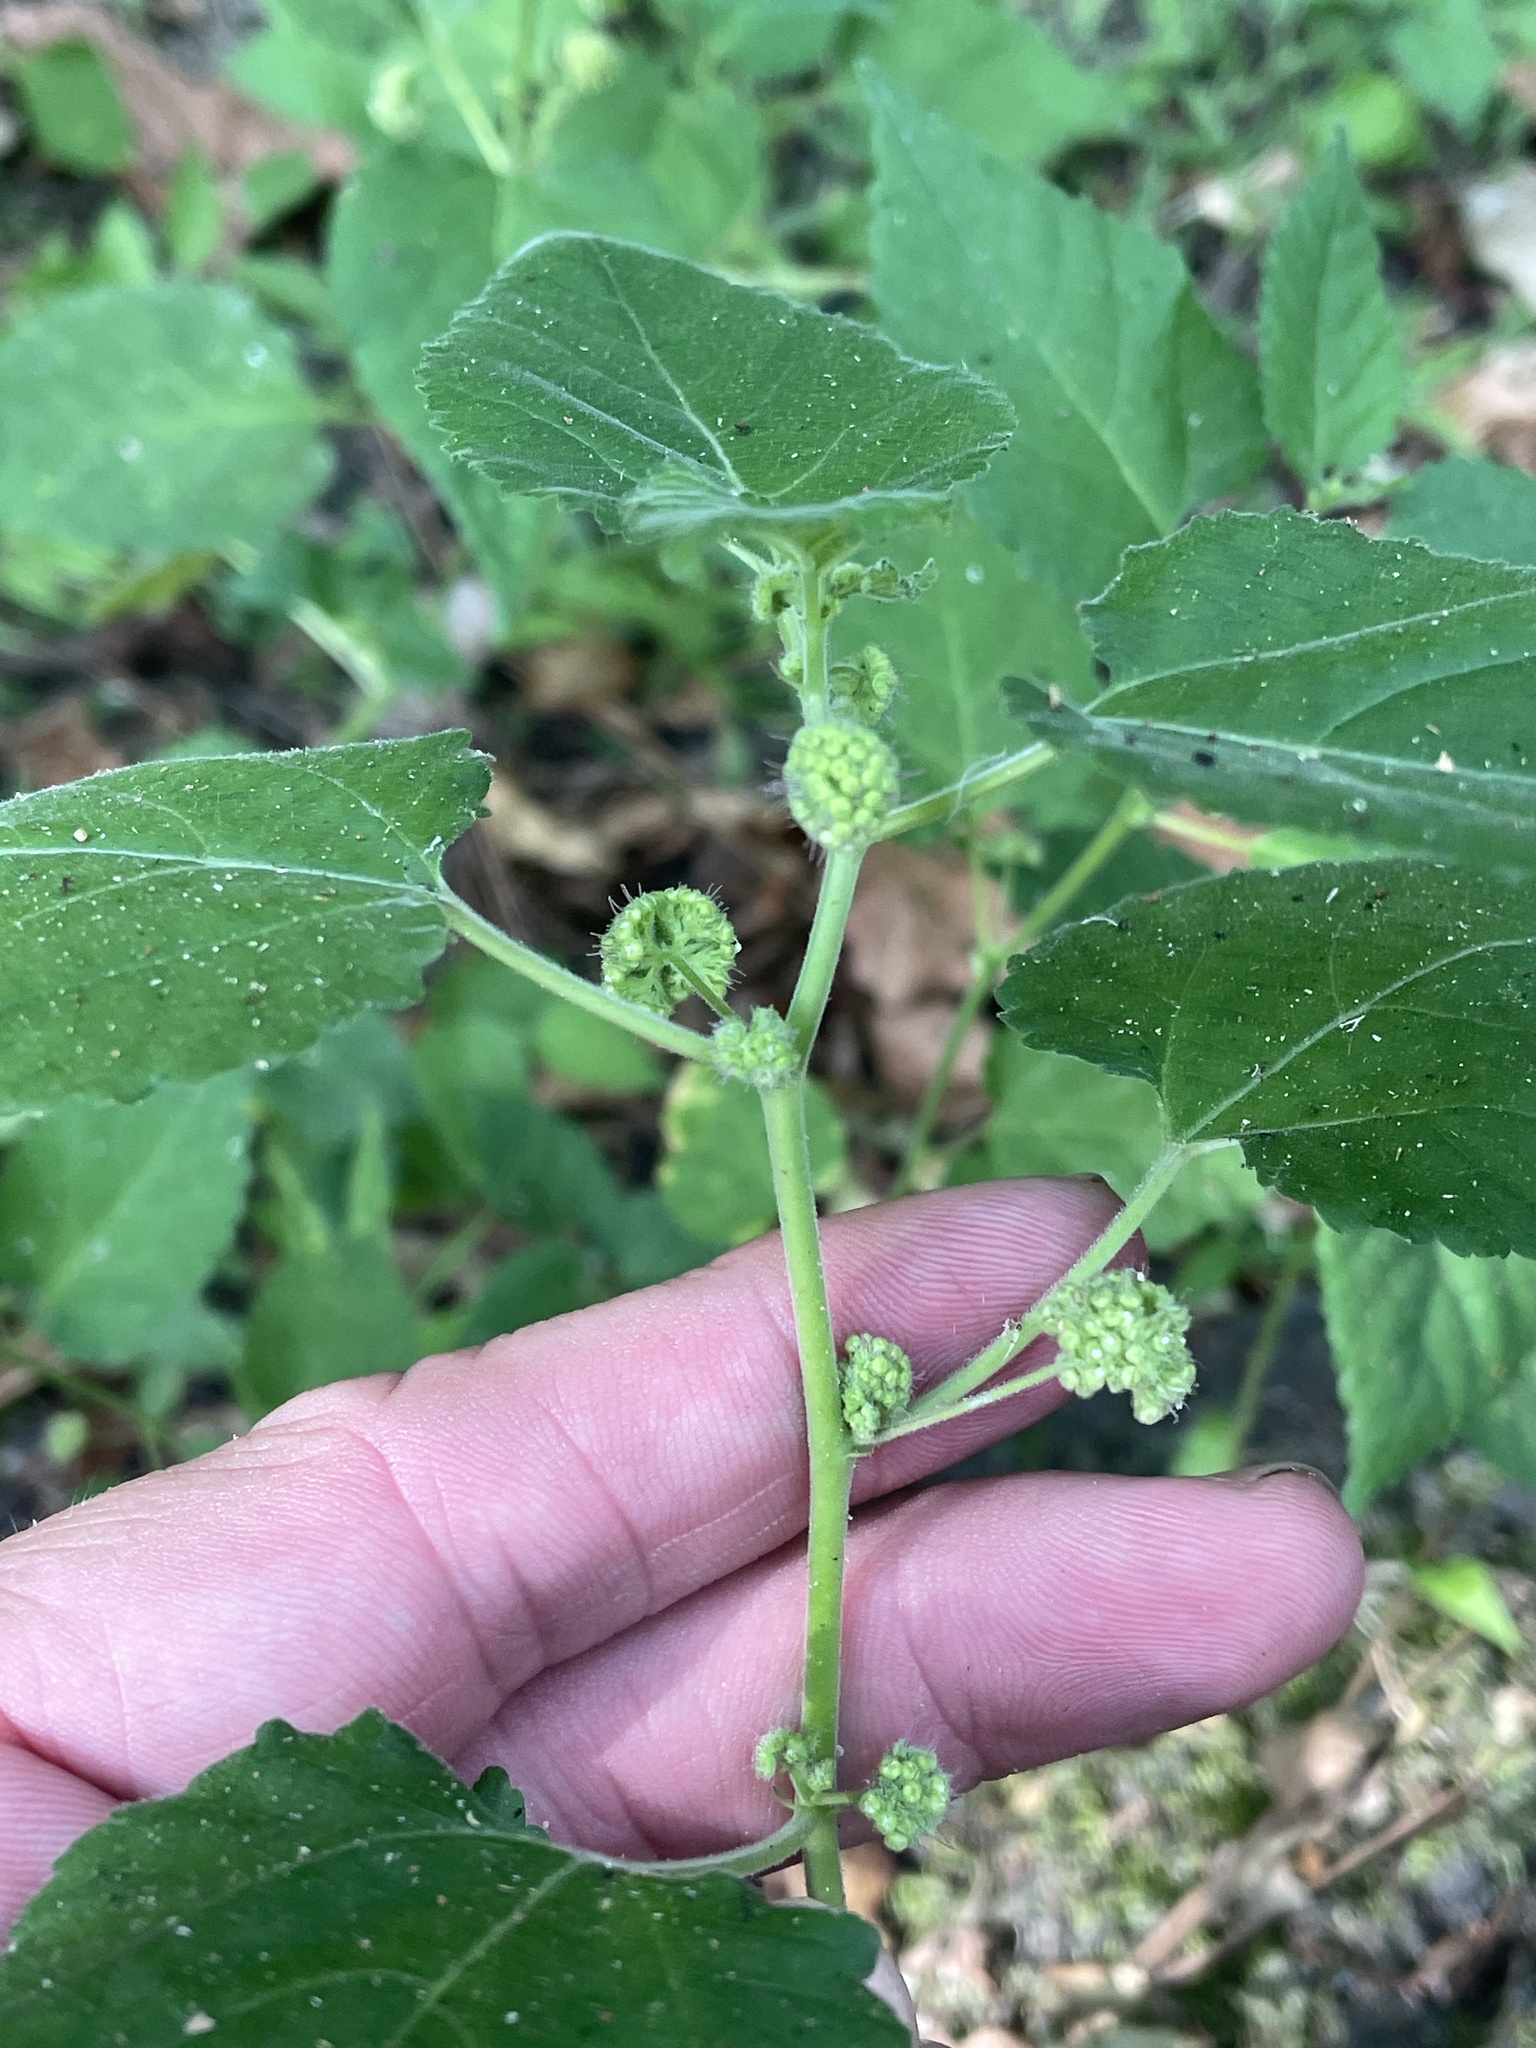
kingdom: Plantae
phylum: Tracheophyta
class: Magnoliopsida
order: Rosales
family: Moraceae
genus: Fatoua
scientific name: Fatoua villosa
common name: Hairy crabweed
